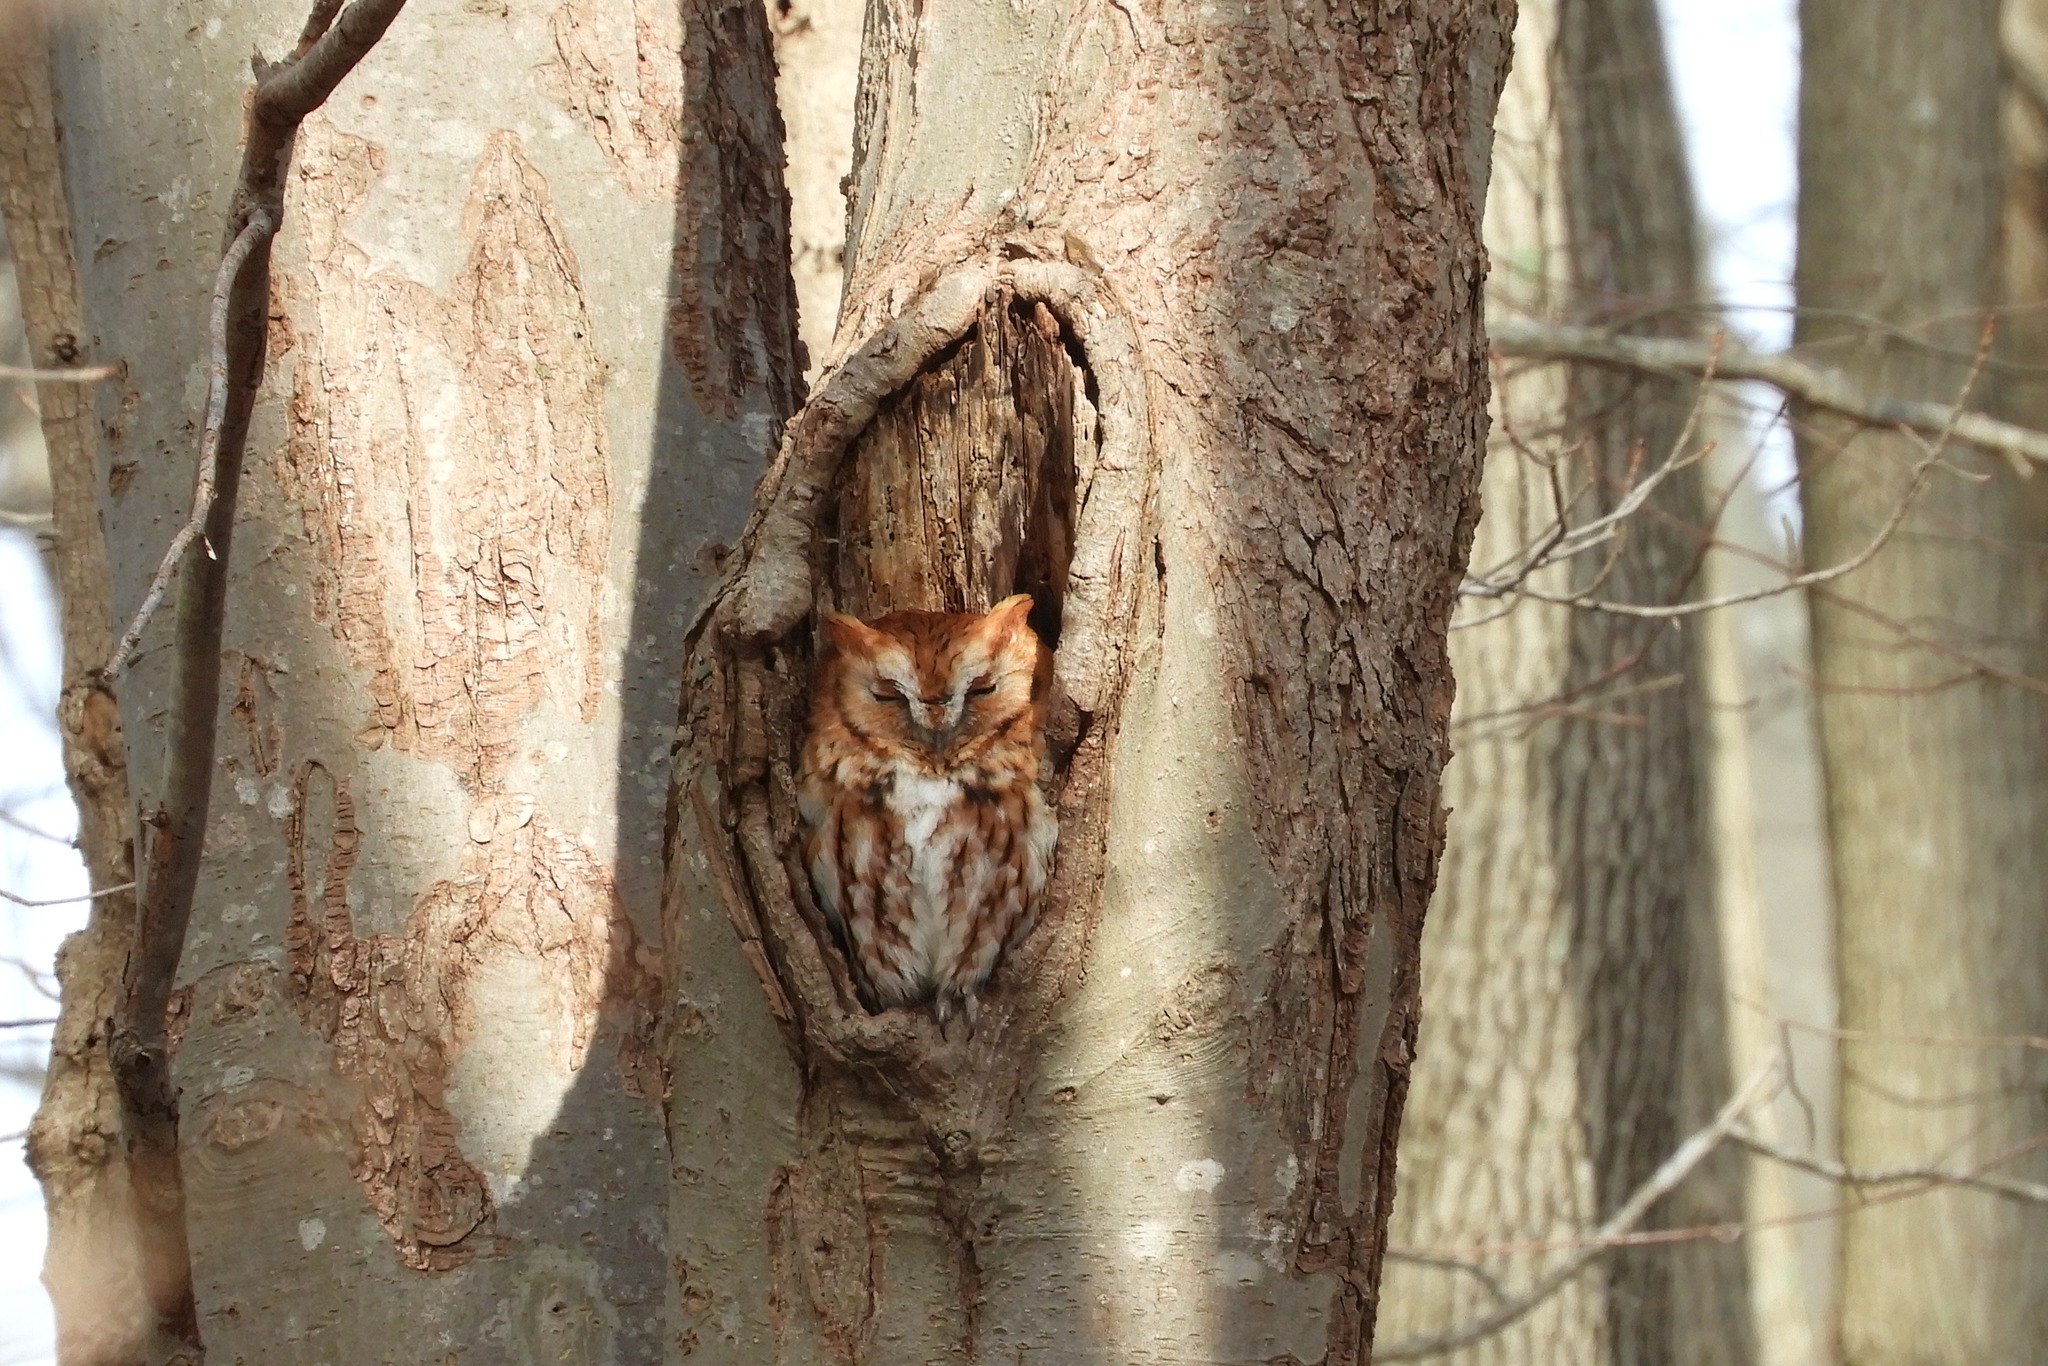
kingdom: Animalia
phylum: Chordata
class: Aves
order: Strigiformes
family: Strigidae
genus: Megascops
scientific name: Megascops asio
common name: Eastern screech-owl
